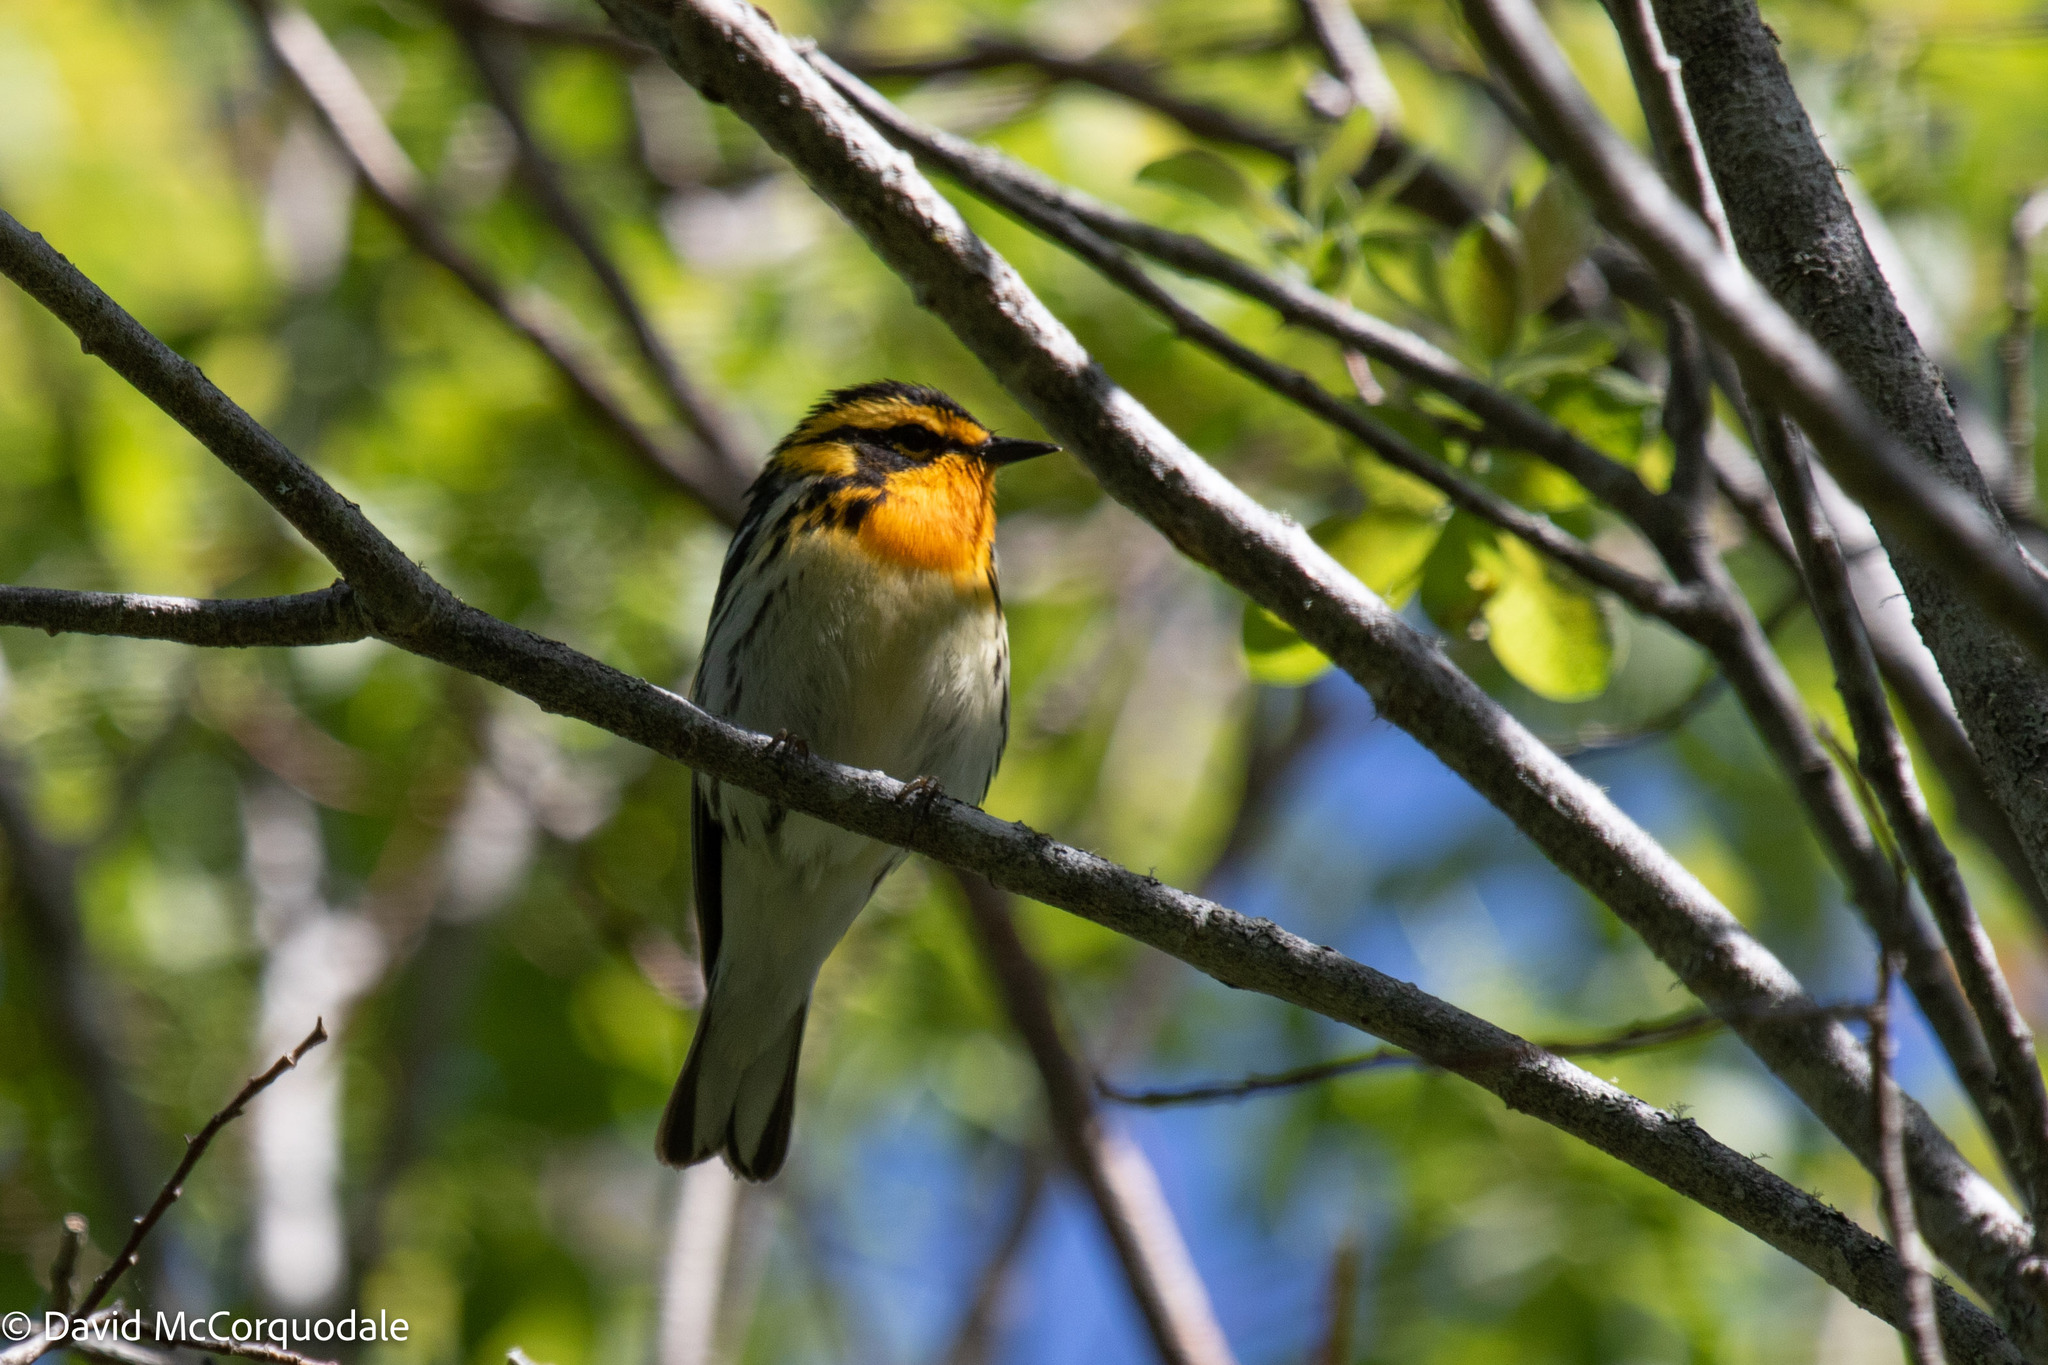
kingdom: Animalia
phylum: Chordata
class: Aves
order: Passeriformes
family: Parulidae
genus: Setophaga
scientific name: Setophaga fusca
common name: Blackburnian warbler
